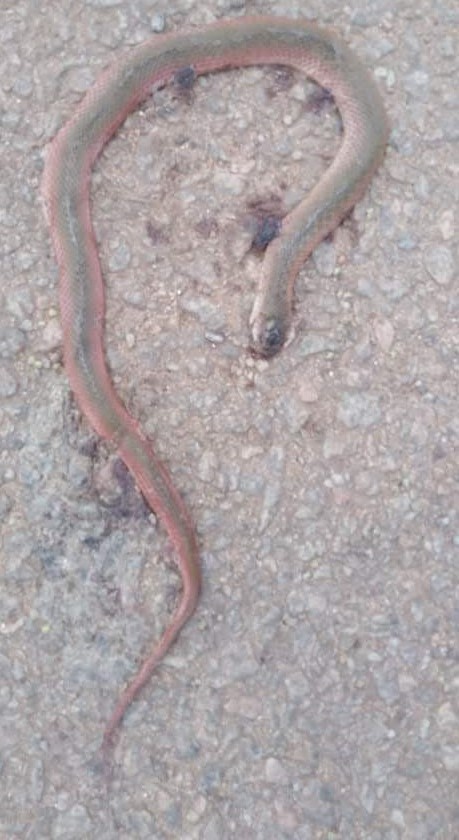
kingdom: Animalia
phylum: Chordata
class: Squamata
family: Colubridae
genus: Fowlea
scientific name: Fowlea piscator
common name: Asiatic water snake
